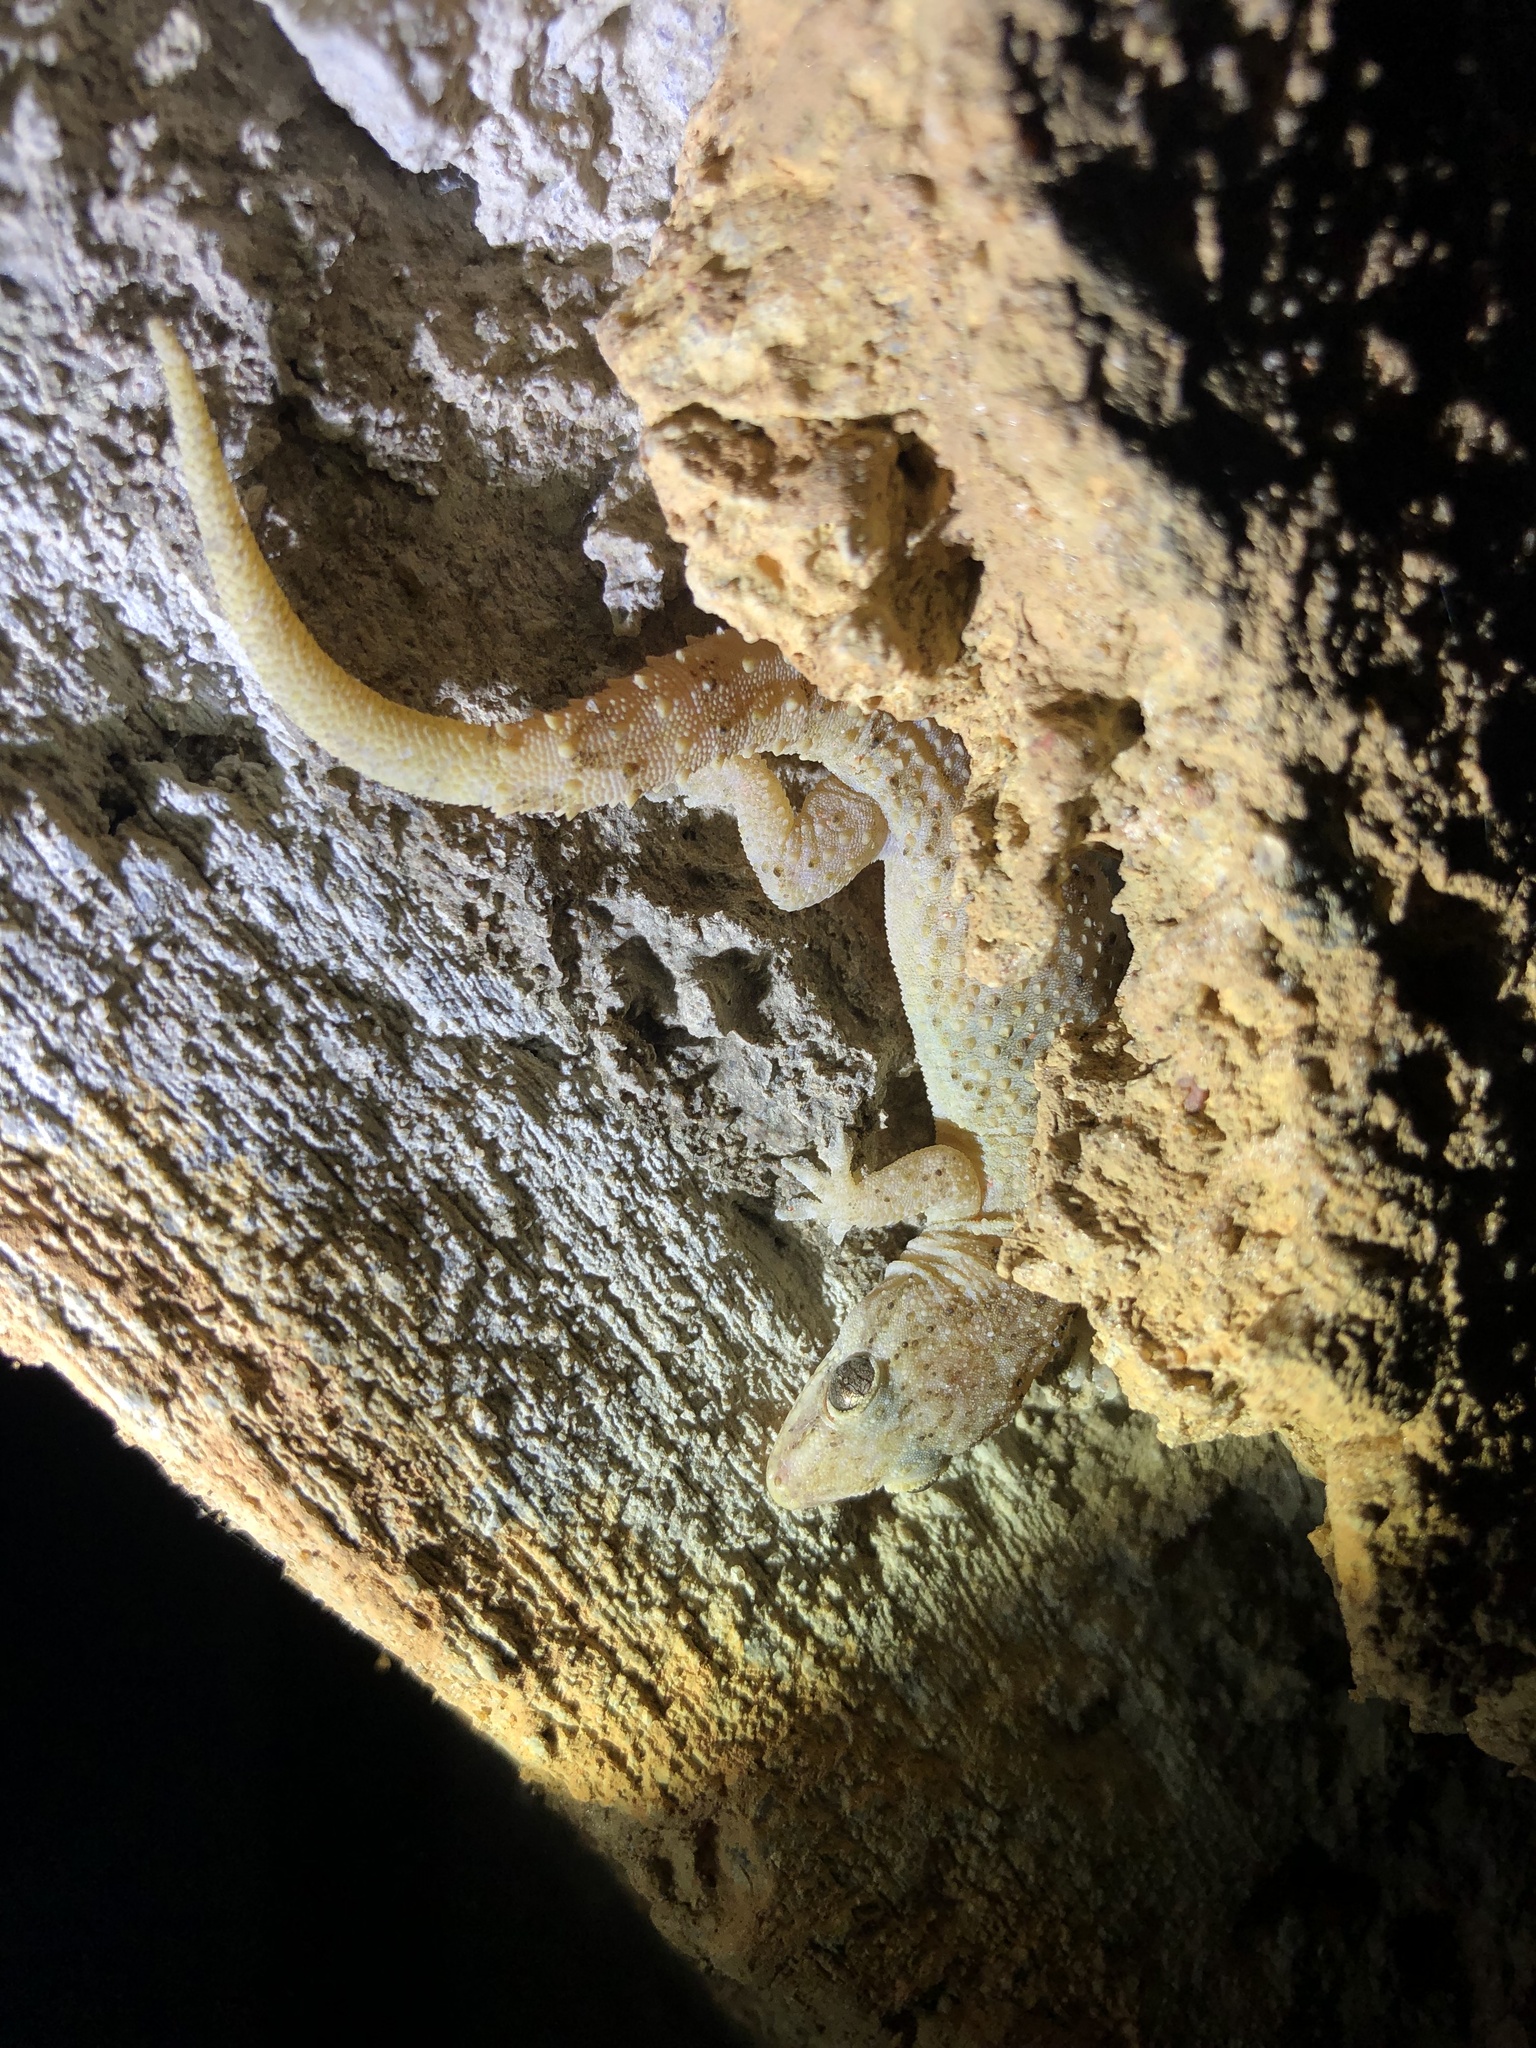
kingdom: Animalia
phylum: Chordata
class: Squamata
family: Gekkonidae
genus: Hemidactylus
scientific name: Hemidactylus agrius
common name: Country leaf-toed gecko
